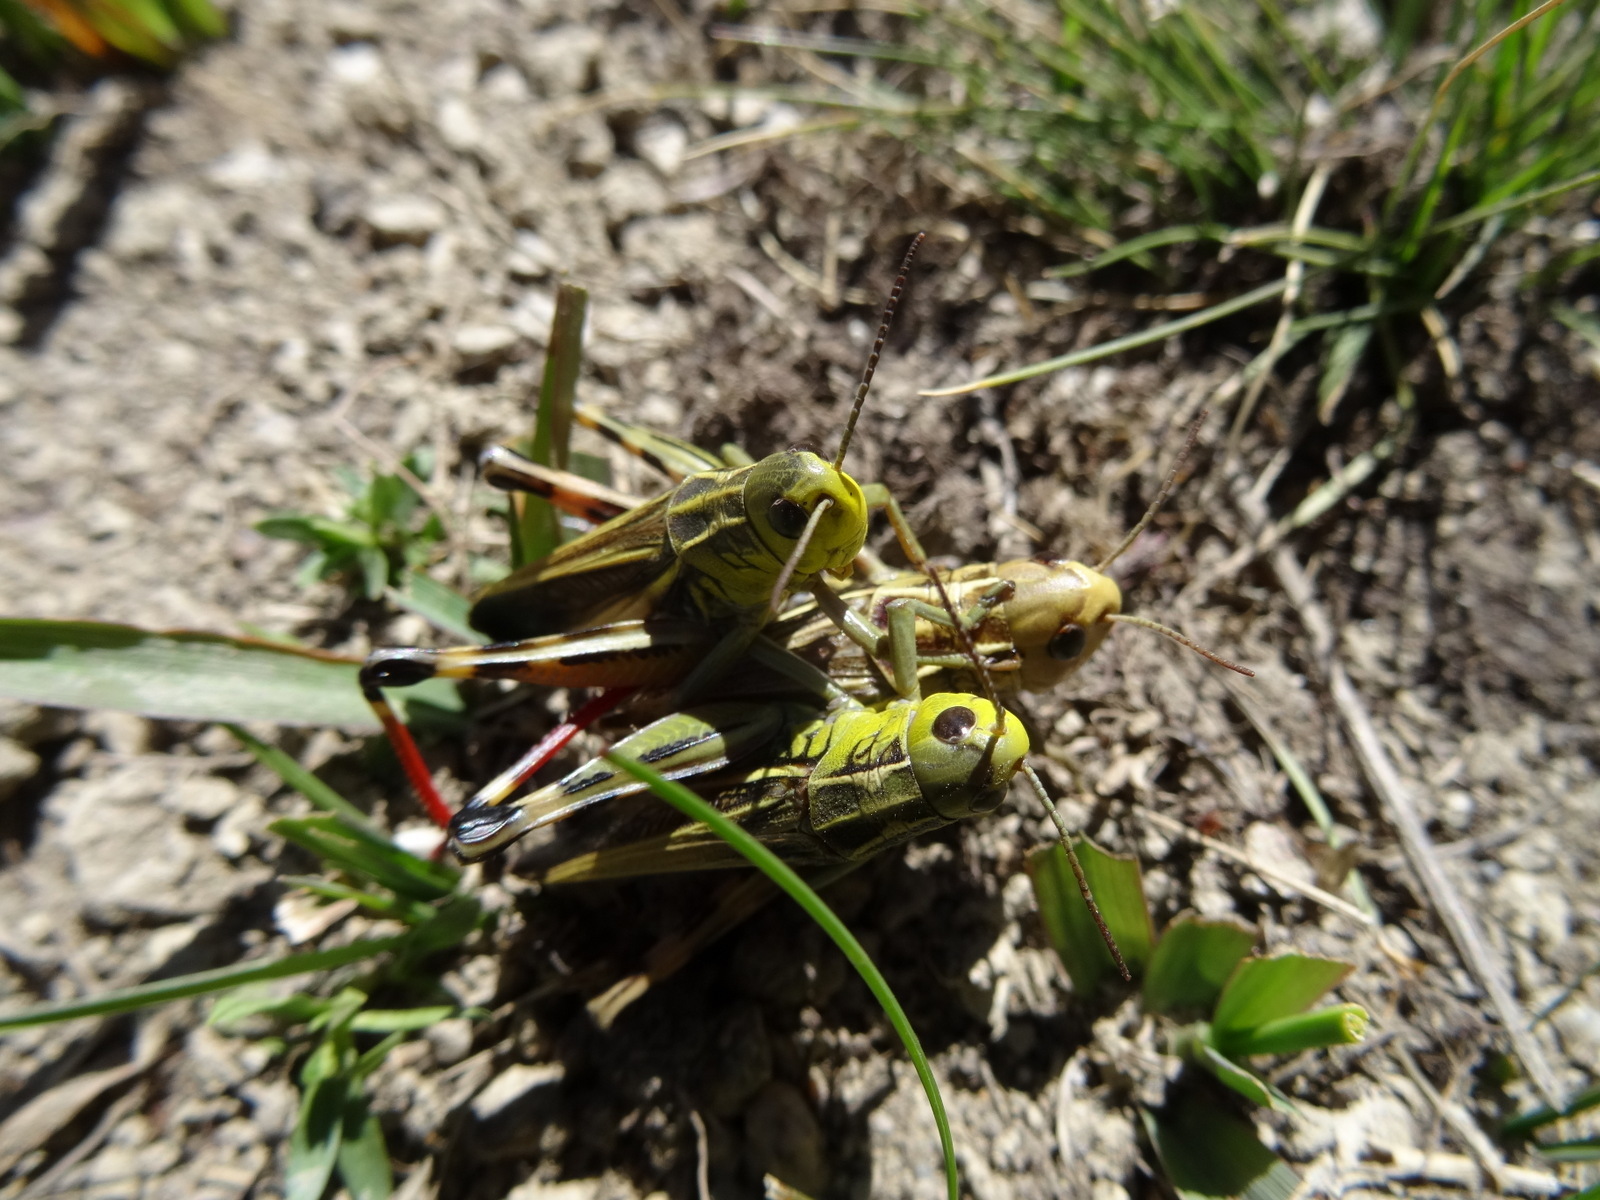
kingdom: Animalia
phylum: Arthropoda
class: Insecta
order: Orthoptera
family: Acrididae
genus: Arcyptera
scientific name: Arcyptera fusca
